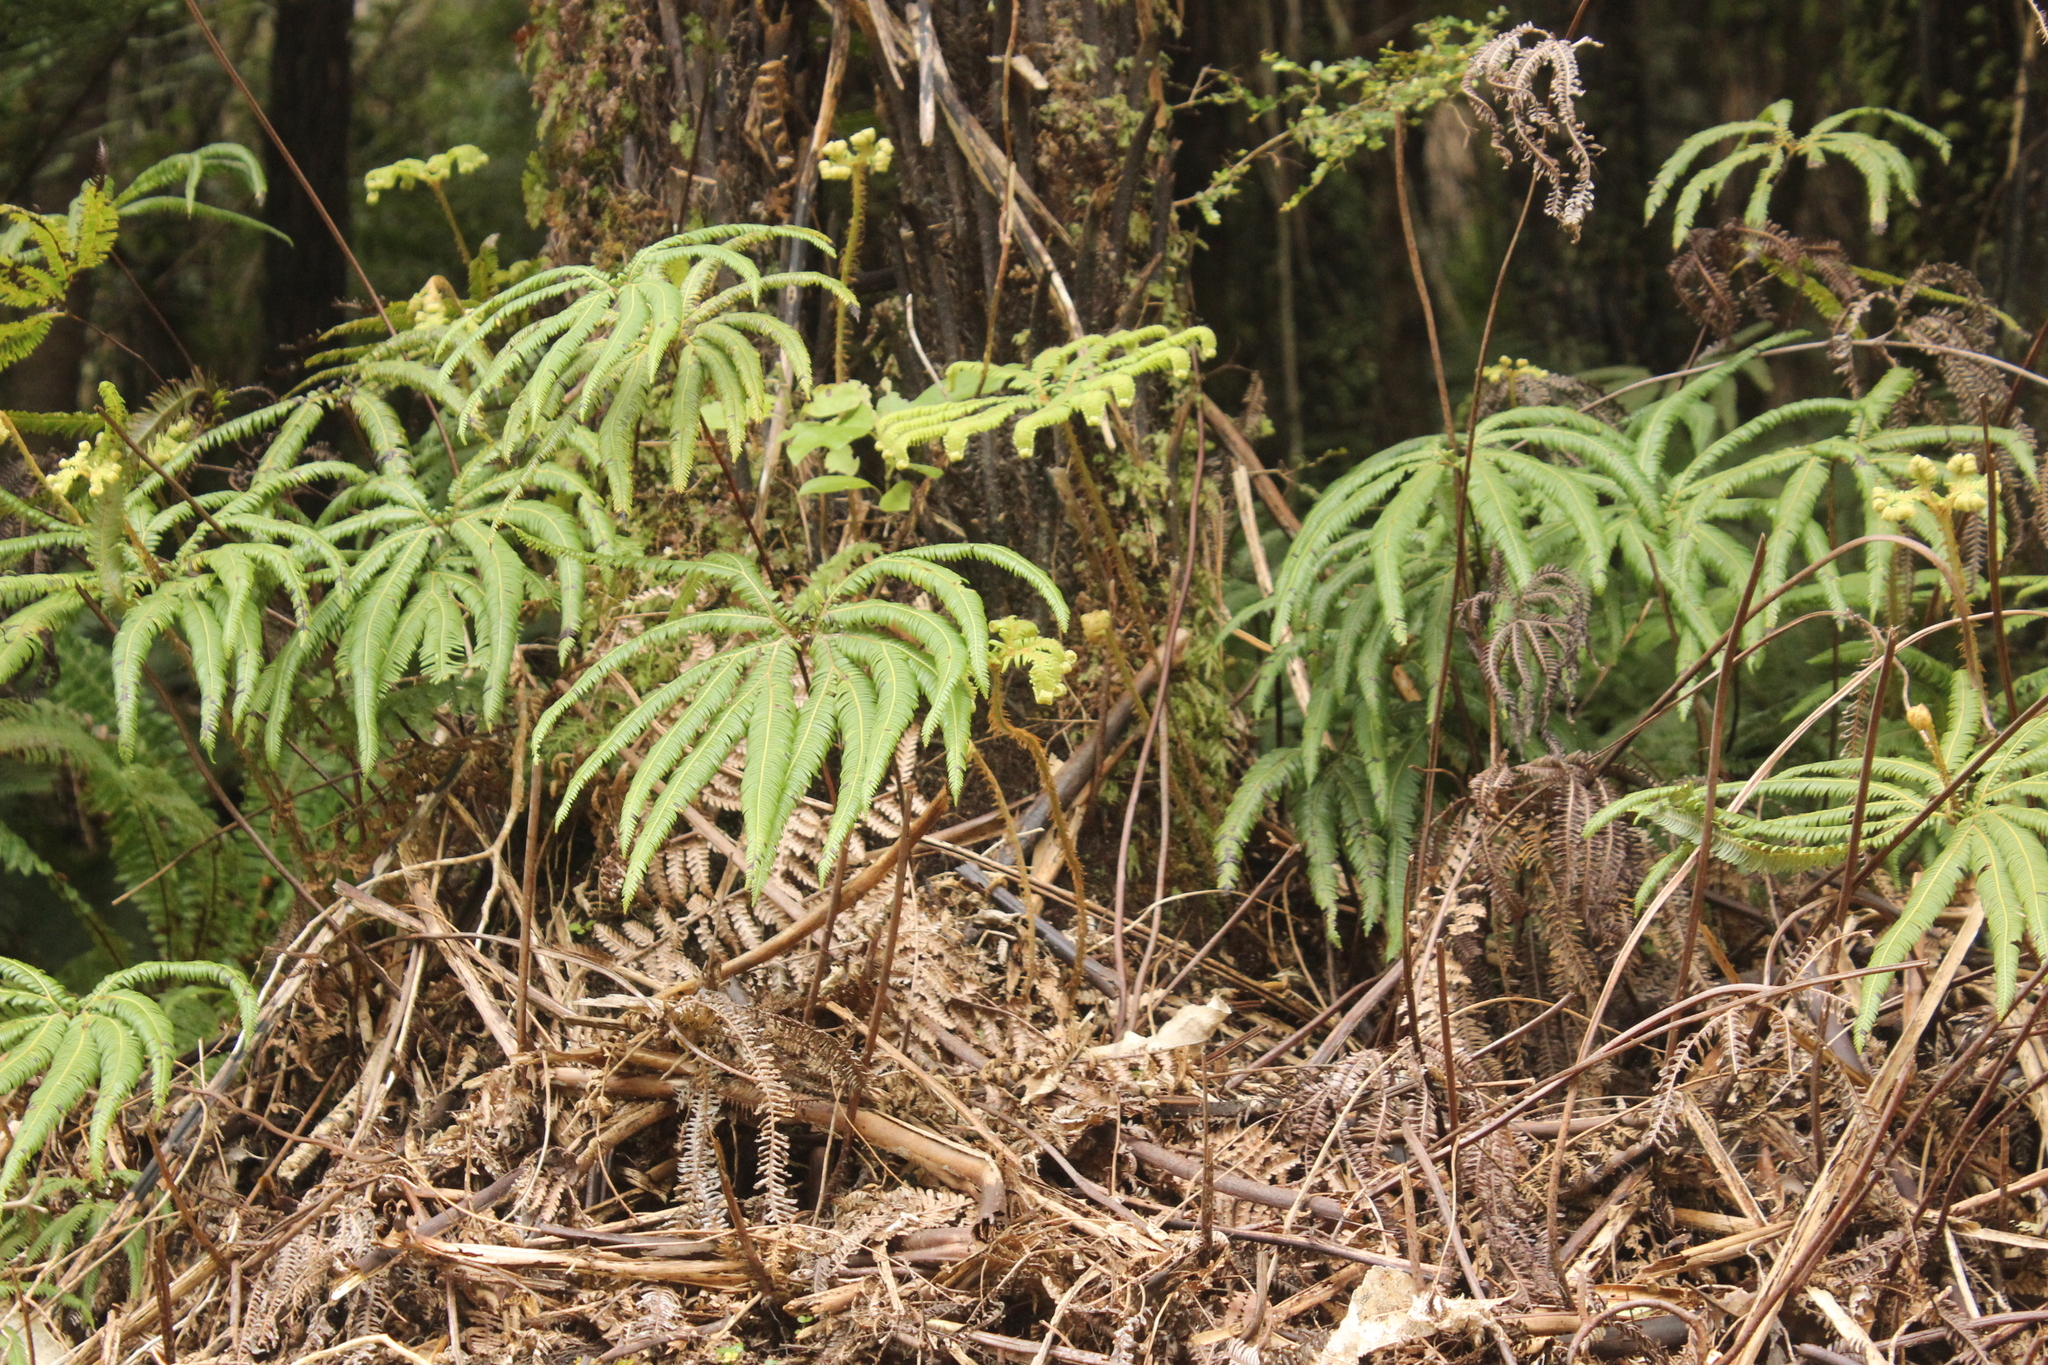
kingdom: Plantae
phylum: Tracheophyta
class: Polypodiopsida
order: Gleicheniales
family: Gleicheniaceae
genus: Sticherus
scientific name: Sticherus cunninghamii
